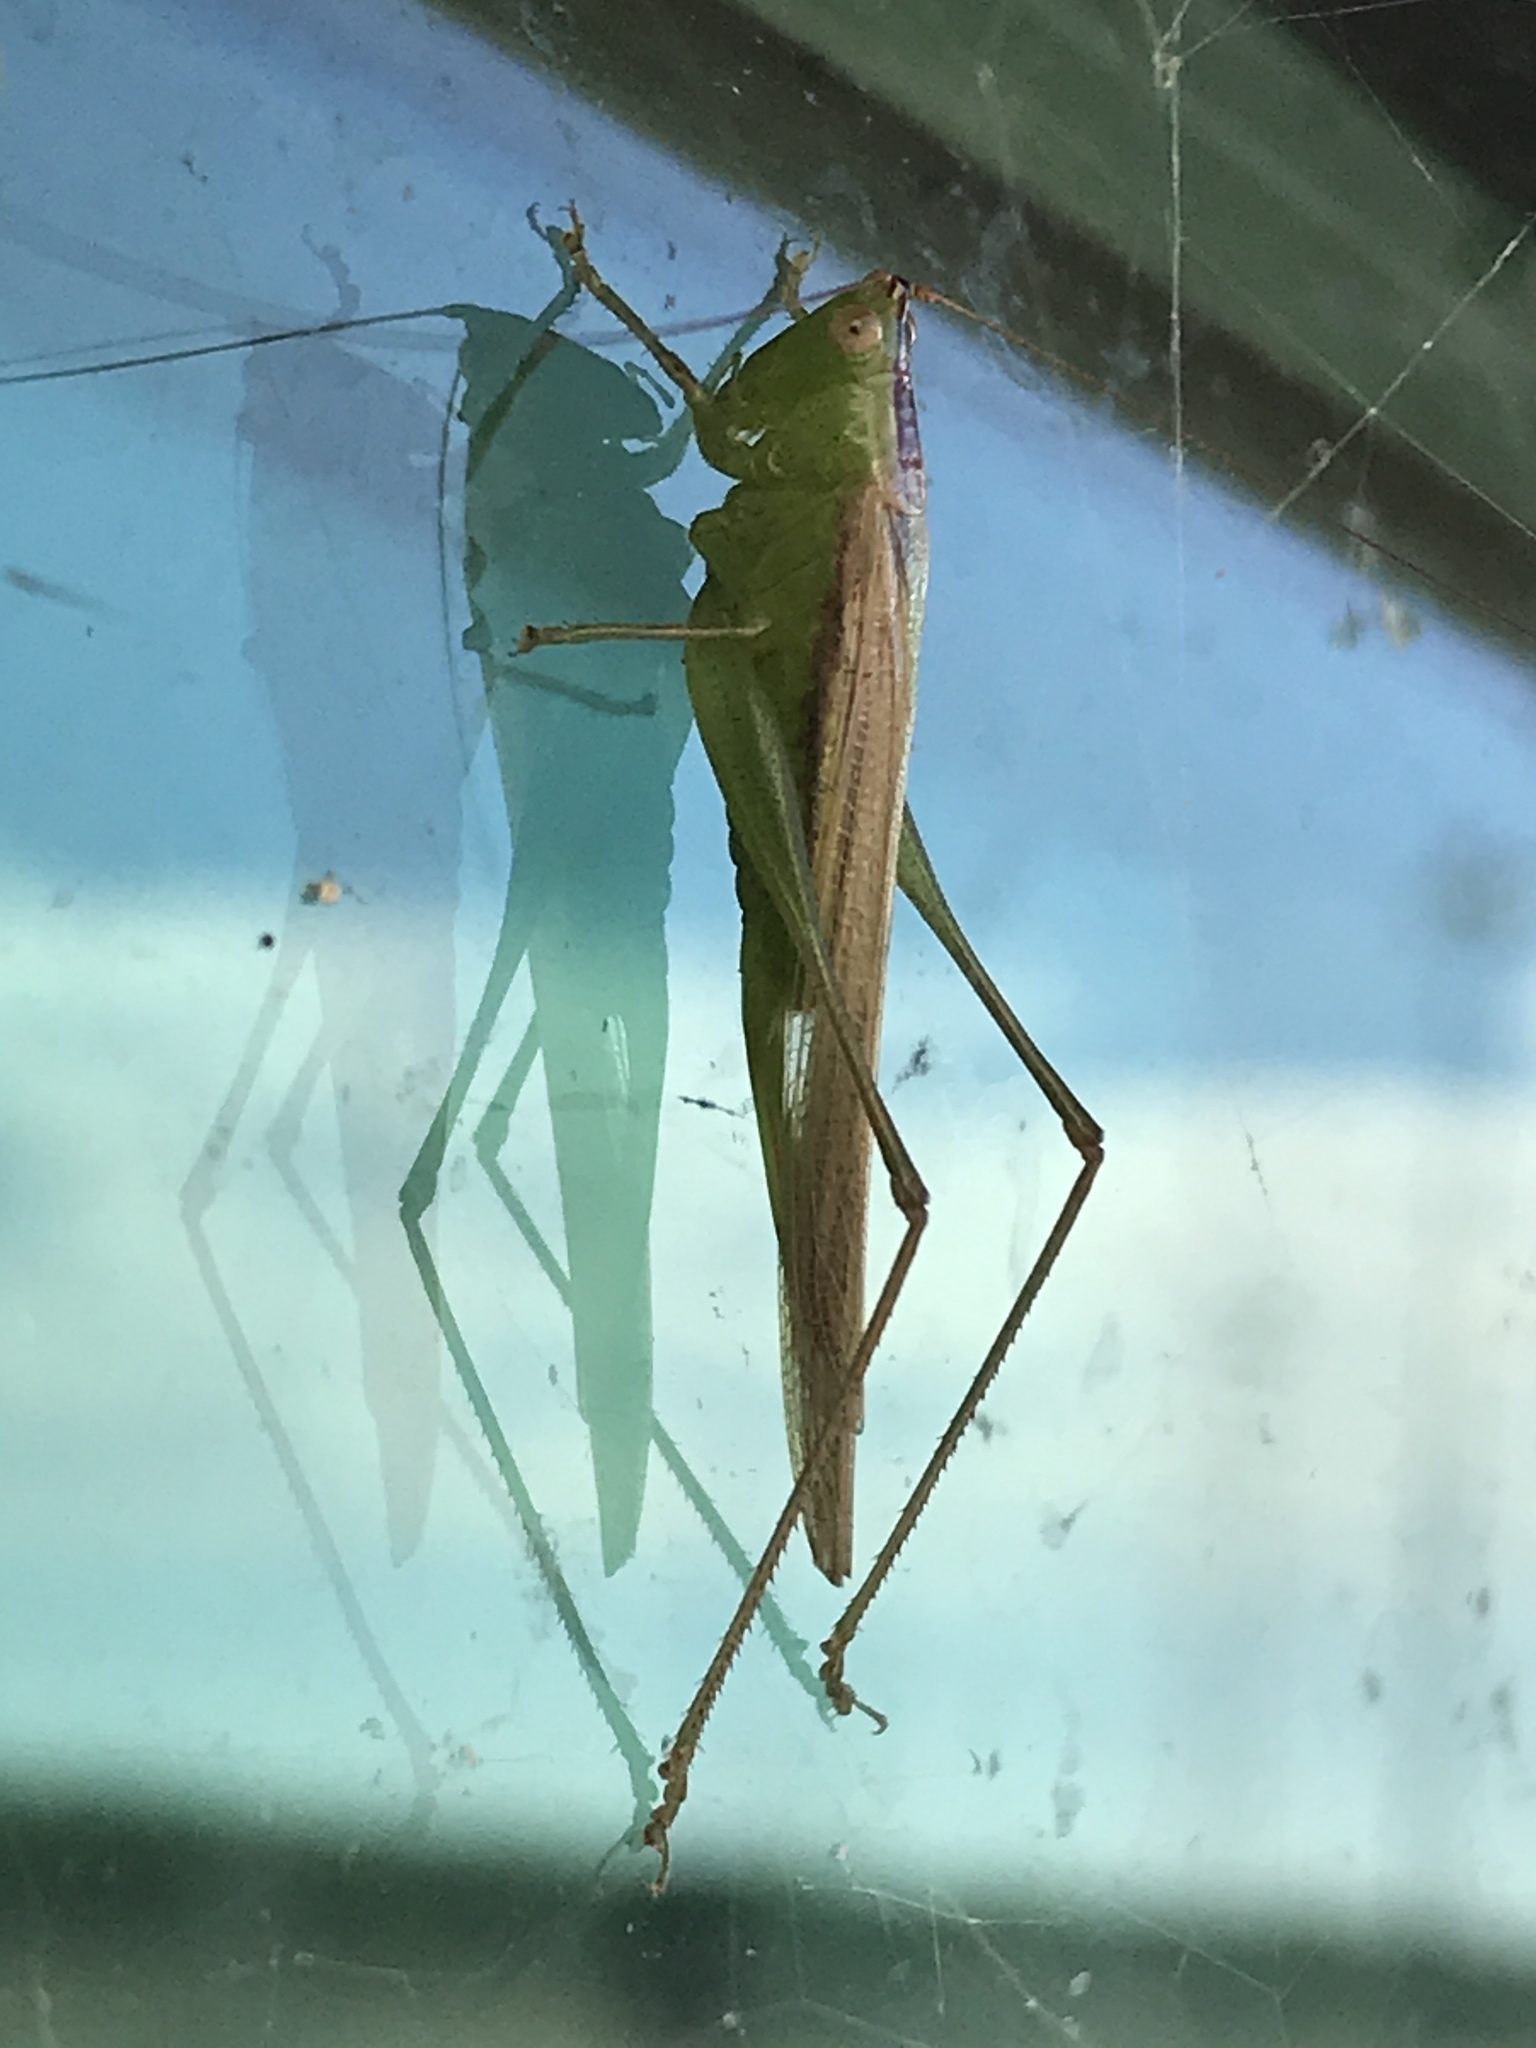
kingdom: Animalia
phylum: Arthropoda
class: Insecta
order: Orthoptera
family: Tettigoniidae
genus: Conocephalus
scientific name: Conocephalus fasciatus
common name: Slender meadow katydid
